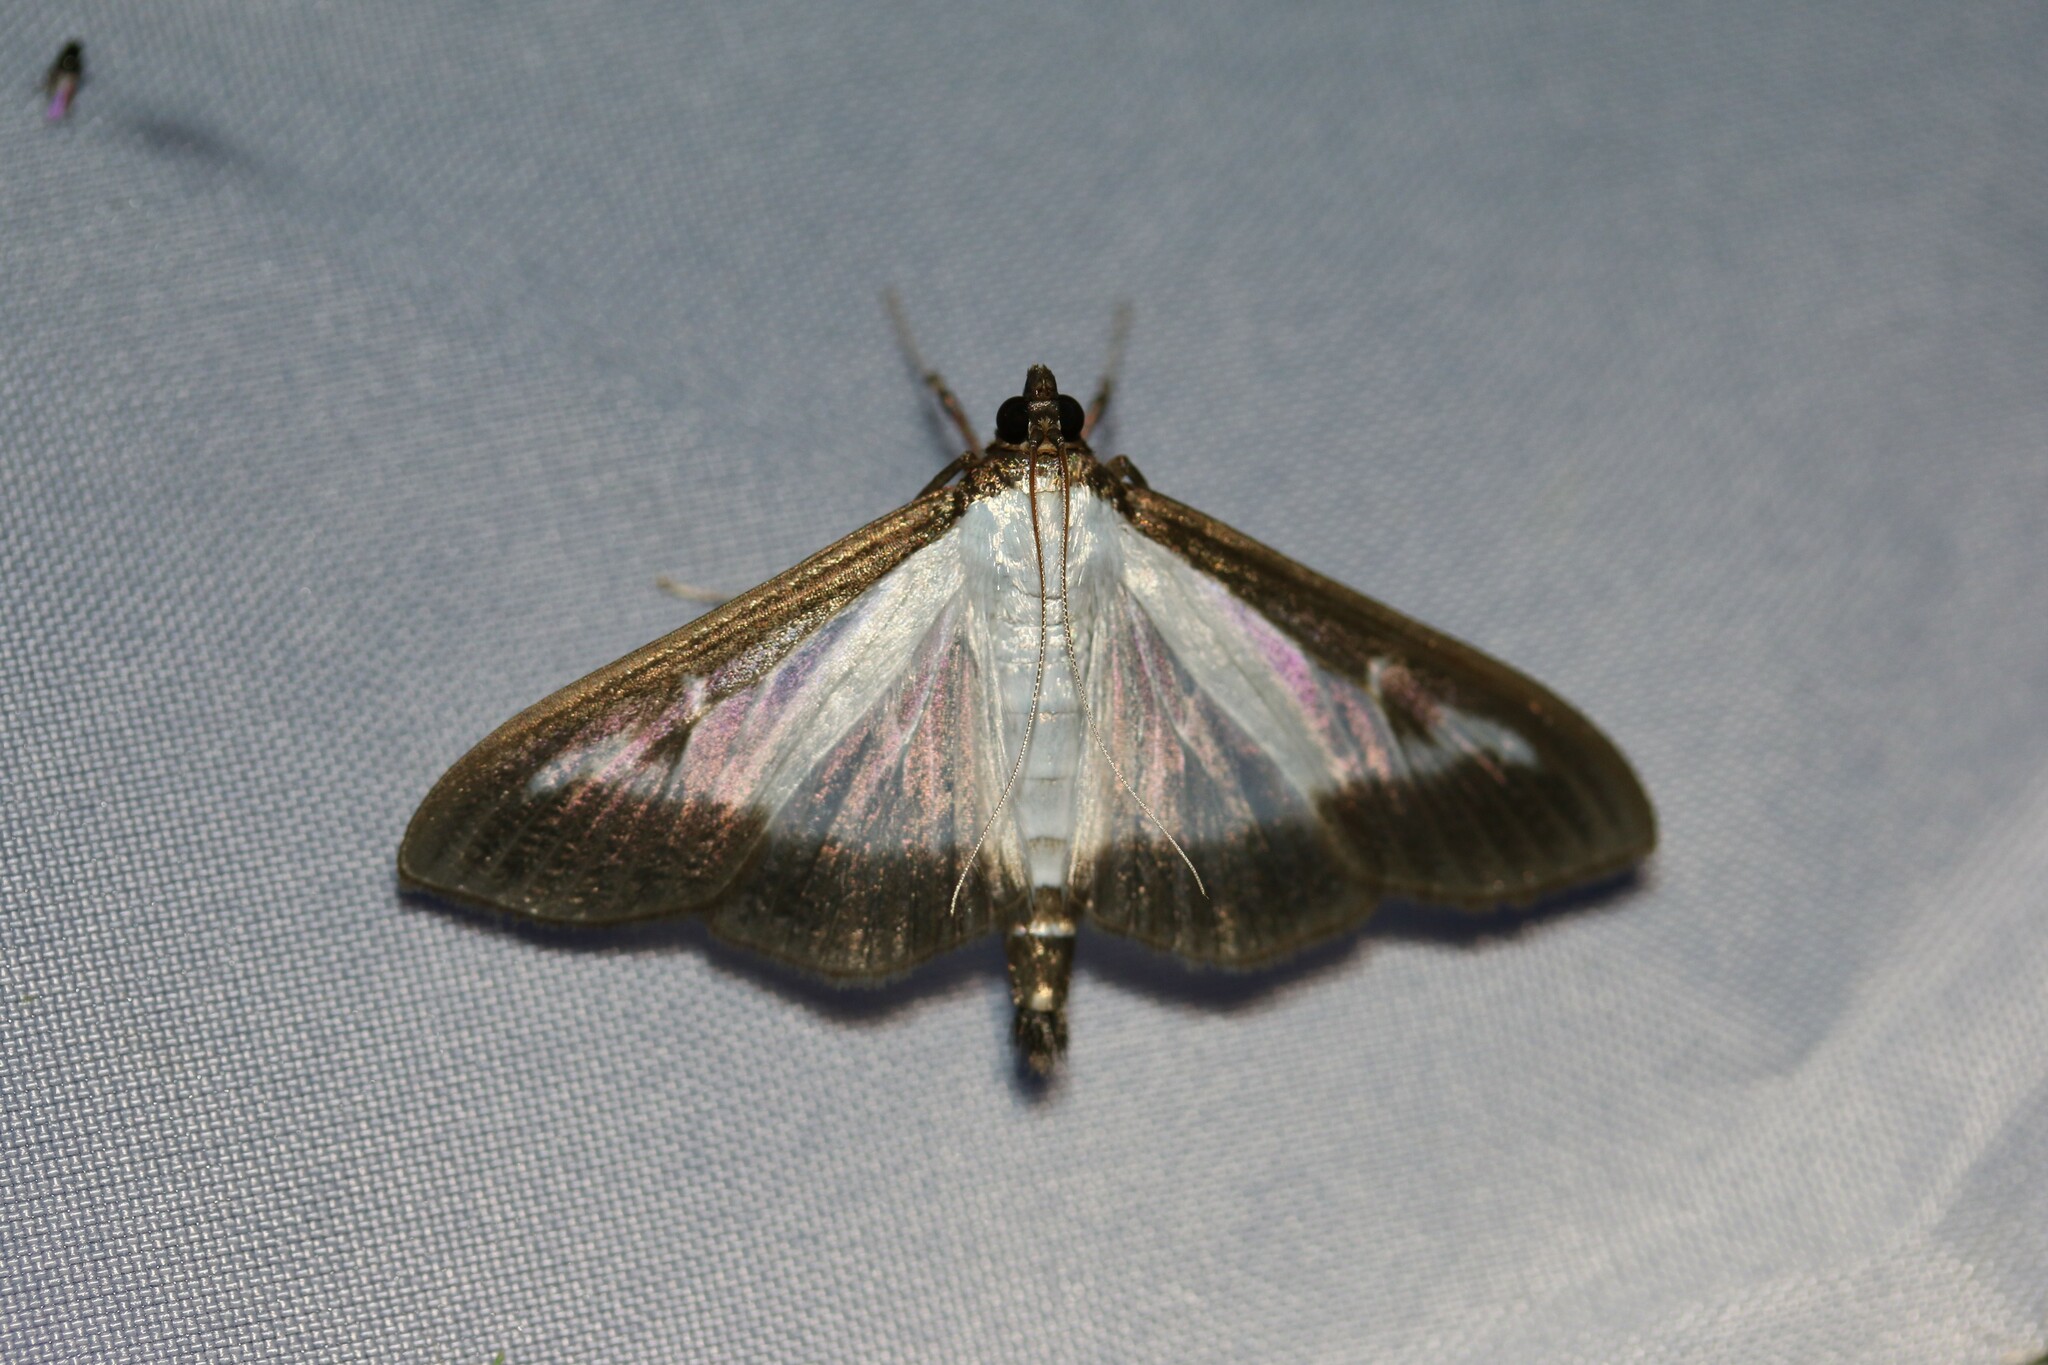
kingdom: Animalia
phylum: Arthropoda
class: Insecta
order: Lepidoptera
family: Crambidae
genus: Cydalima
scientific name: Cydalima perspectalis
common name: Box tree moth
